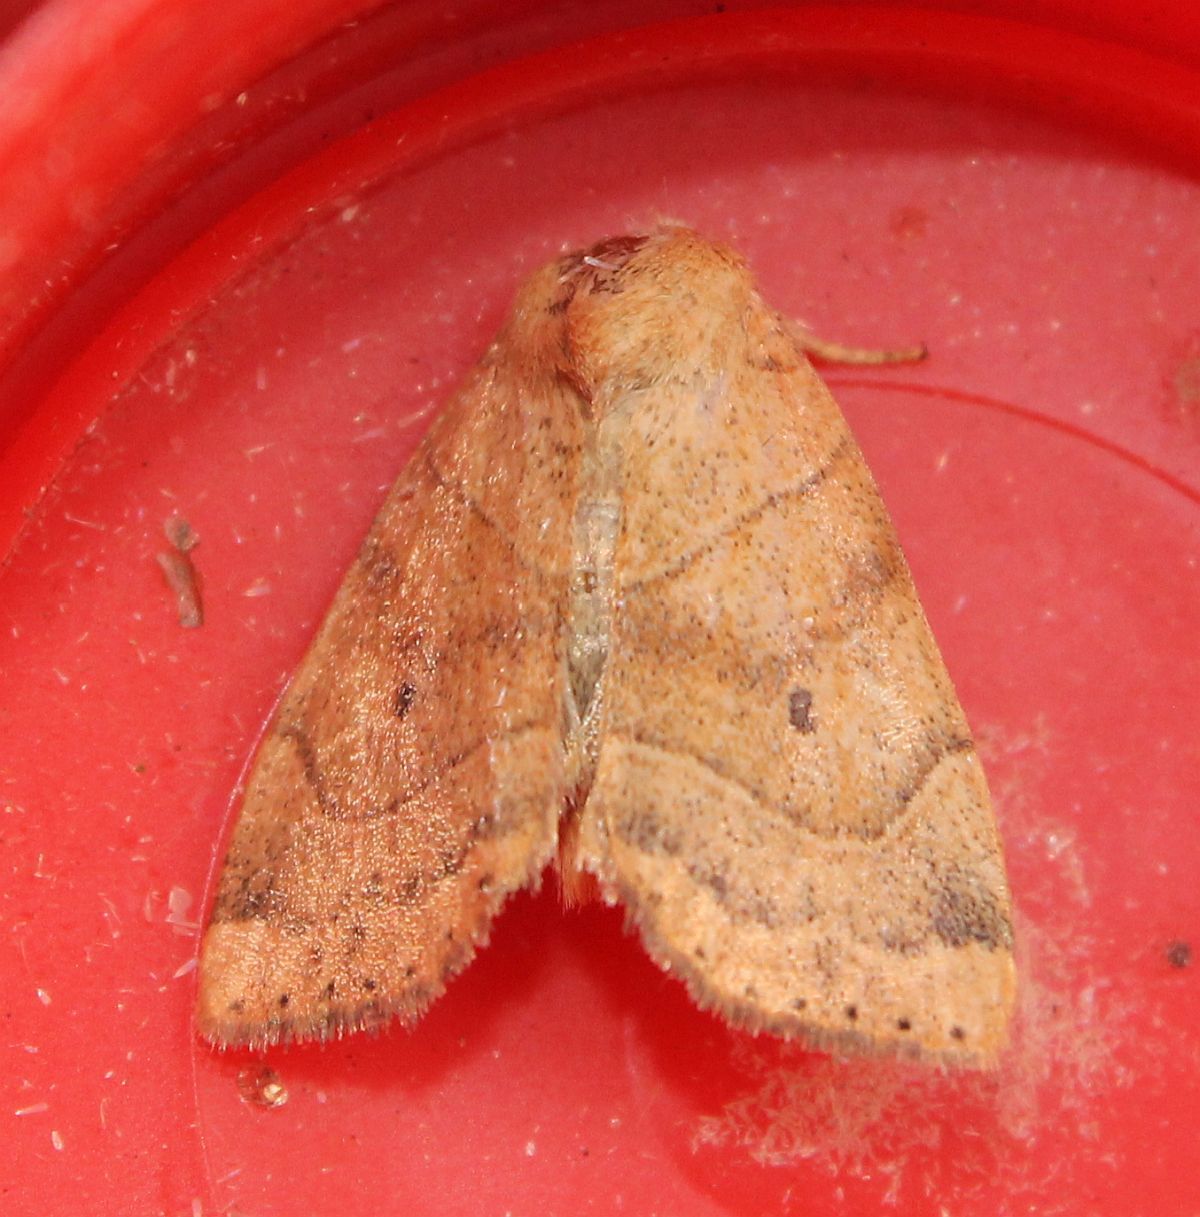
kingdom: Animalia
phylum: Arthropoda
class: Insecta
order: Lepidoptera
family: Noctuidae
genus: Cosmia
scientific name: Cosmia trapezina
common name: Dun-bar
